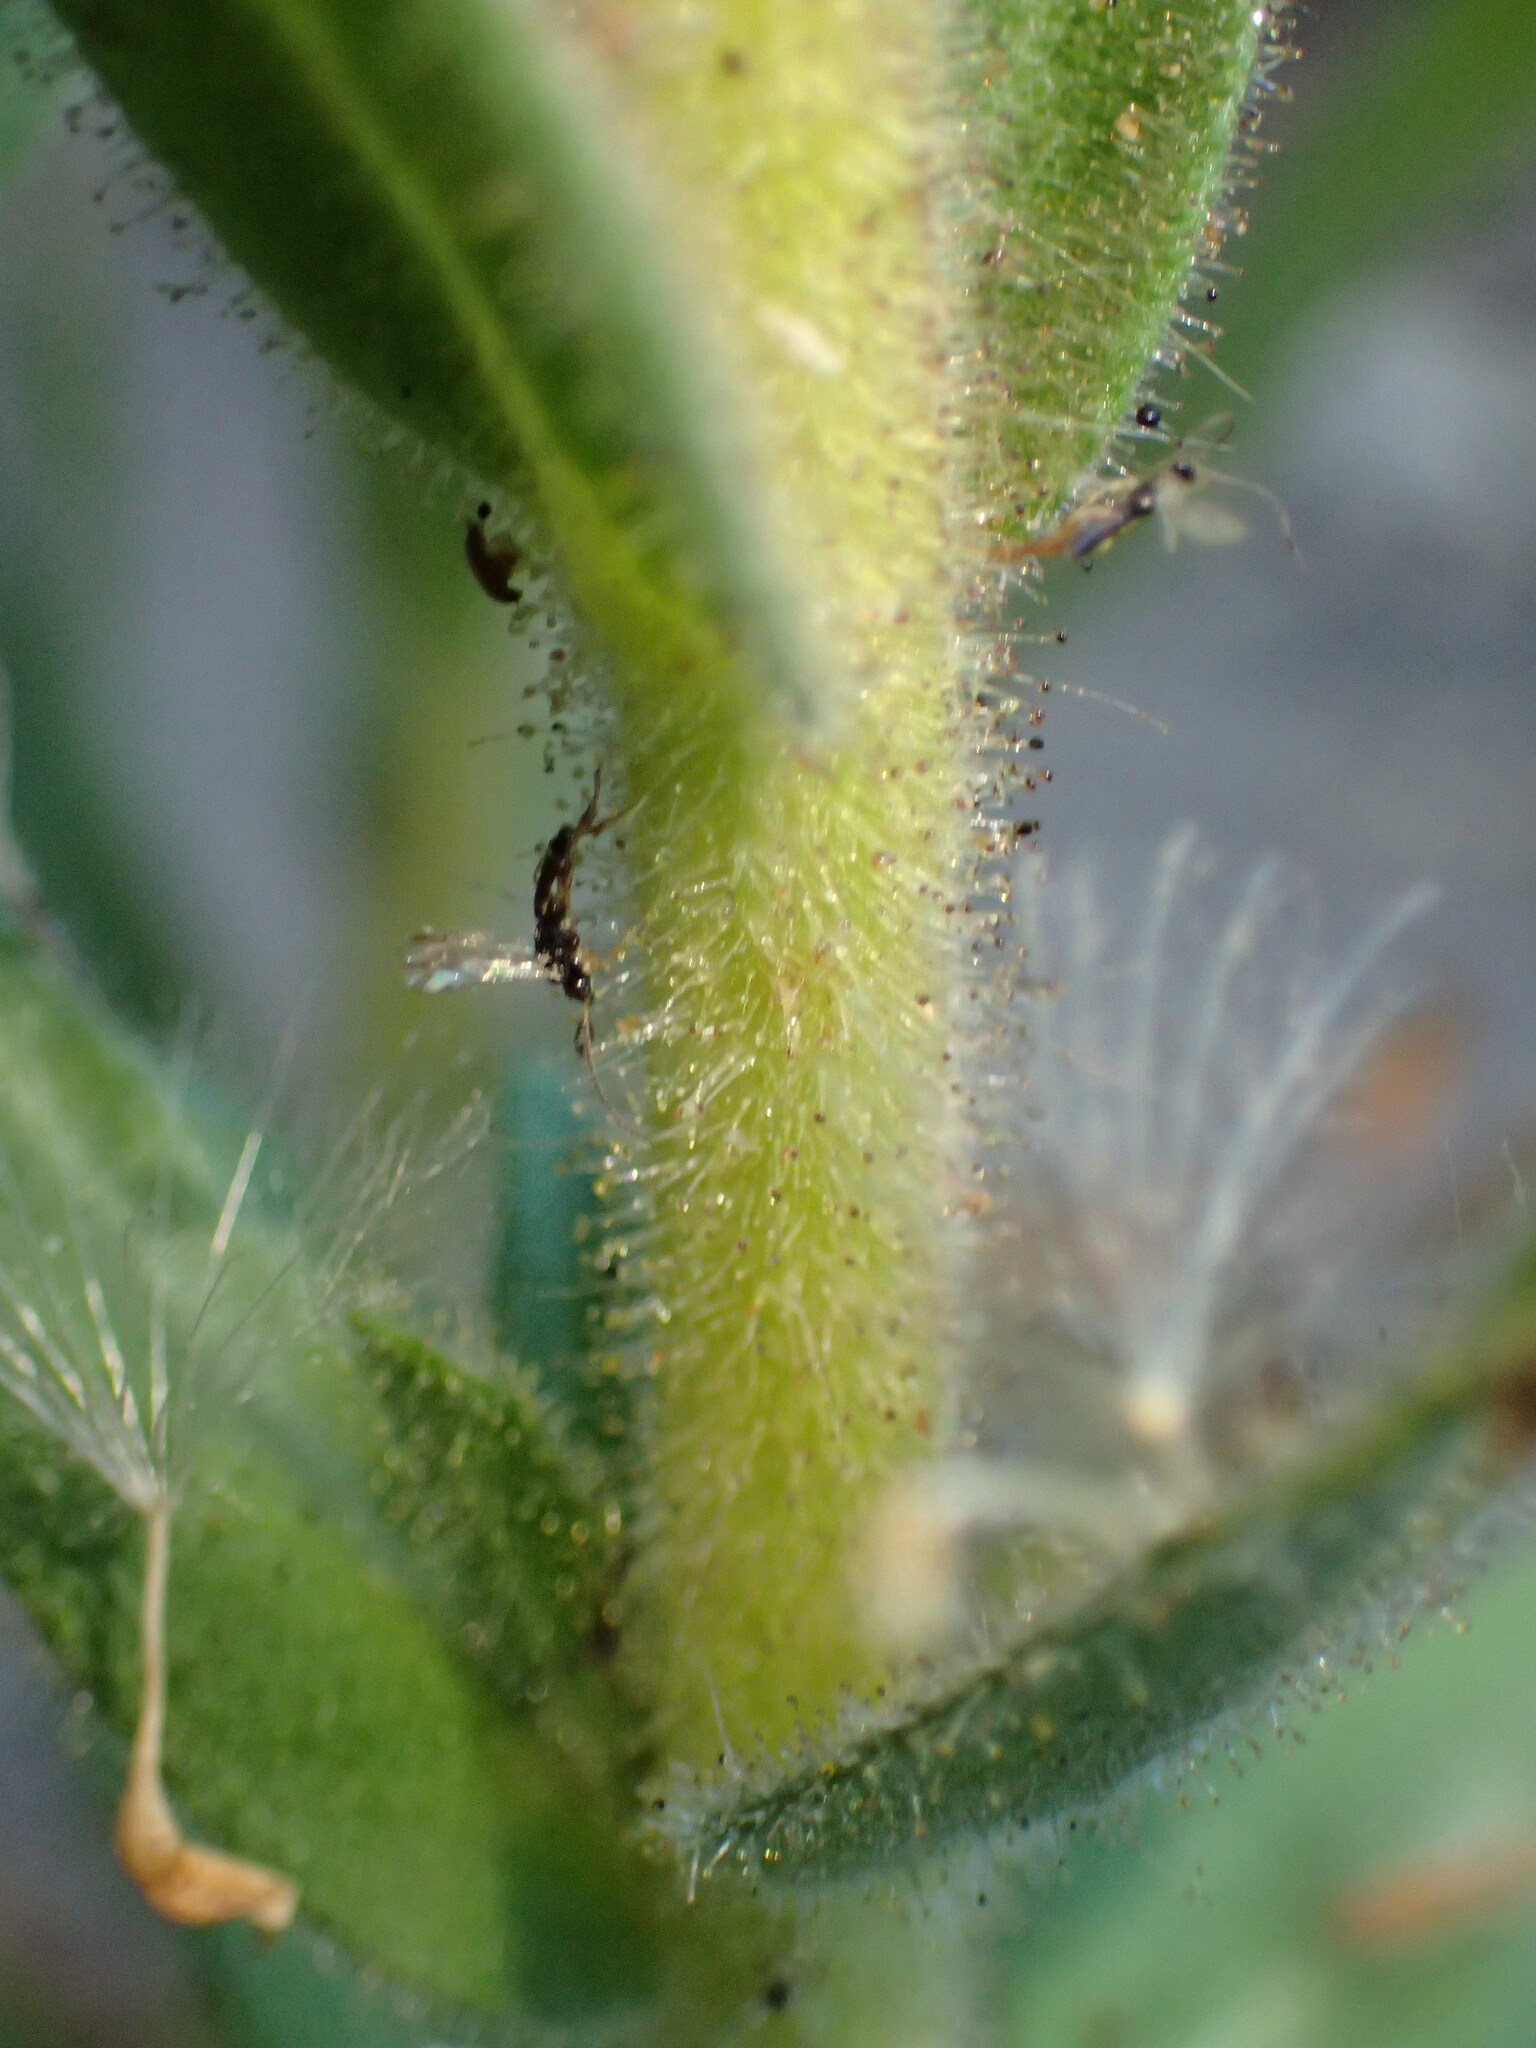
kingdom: Plantae
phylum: Tracheophyta
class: Magnoliopsida
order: Asterales
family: Asteraceae
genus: Madia
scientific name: Madia sativa
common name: Coast tarweed
